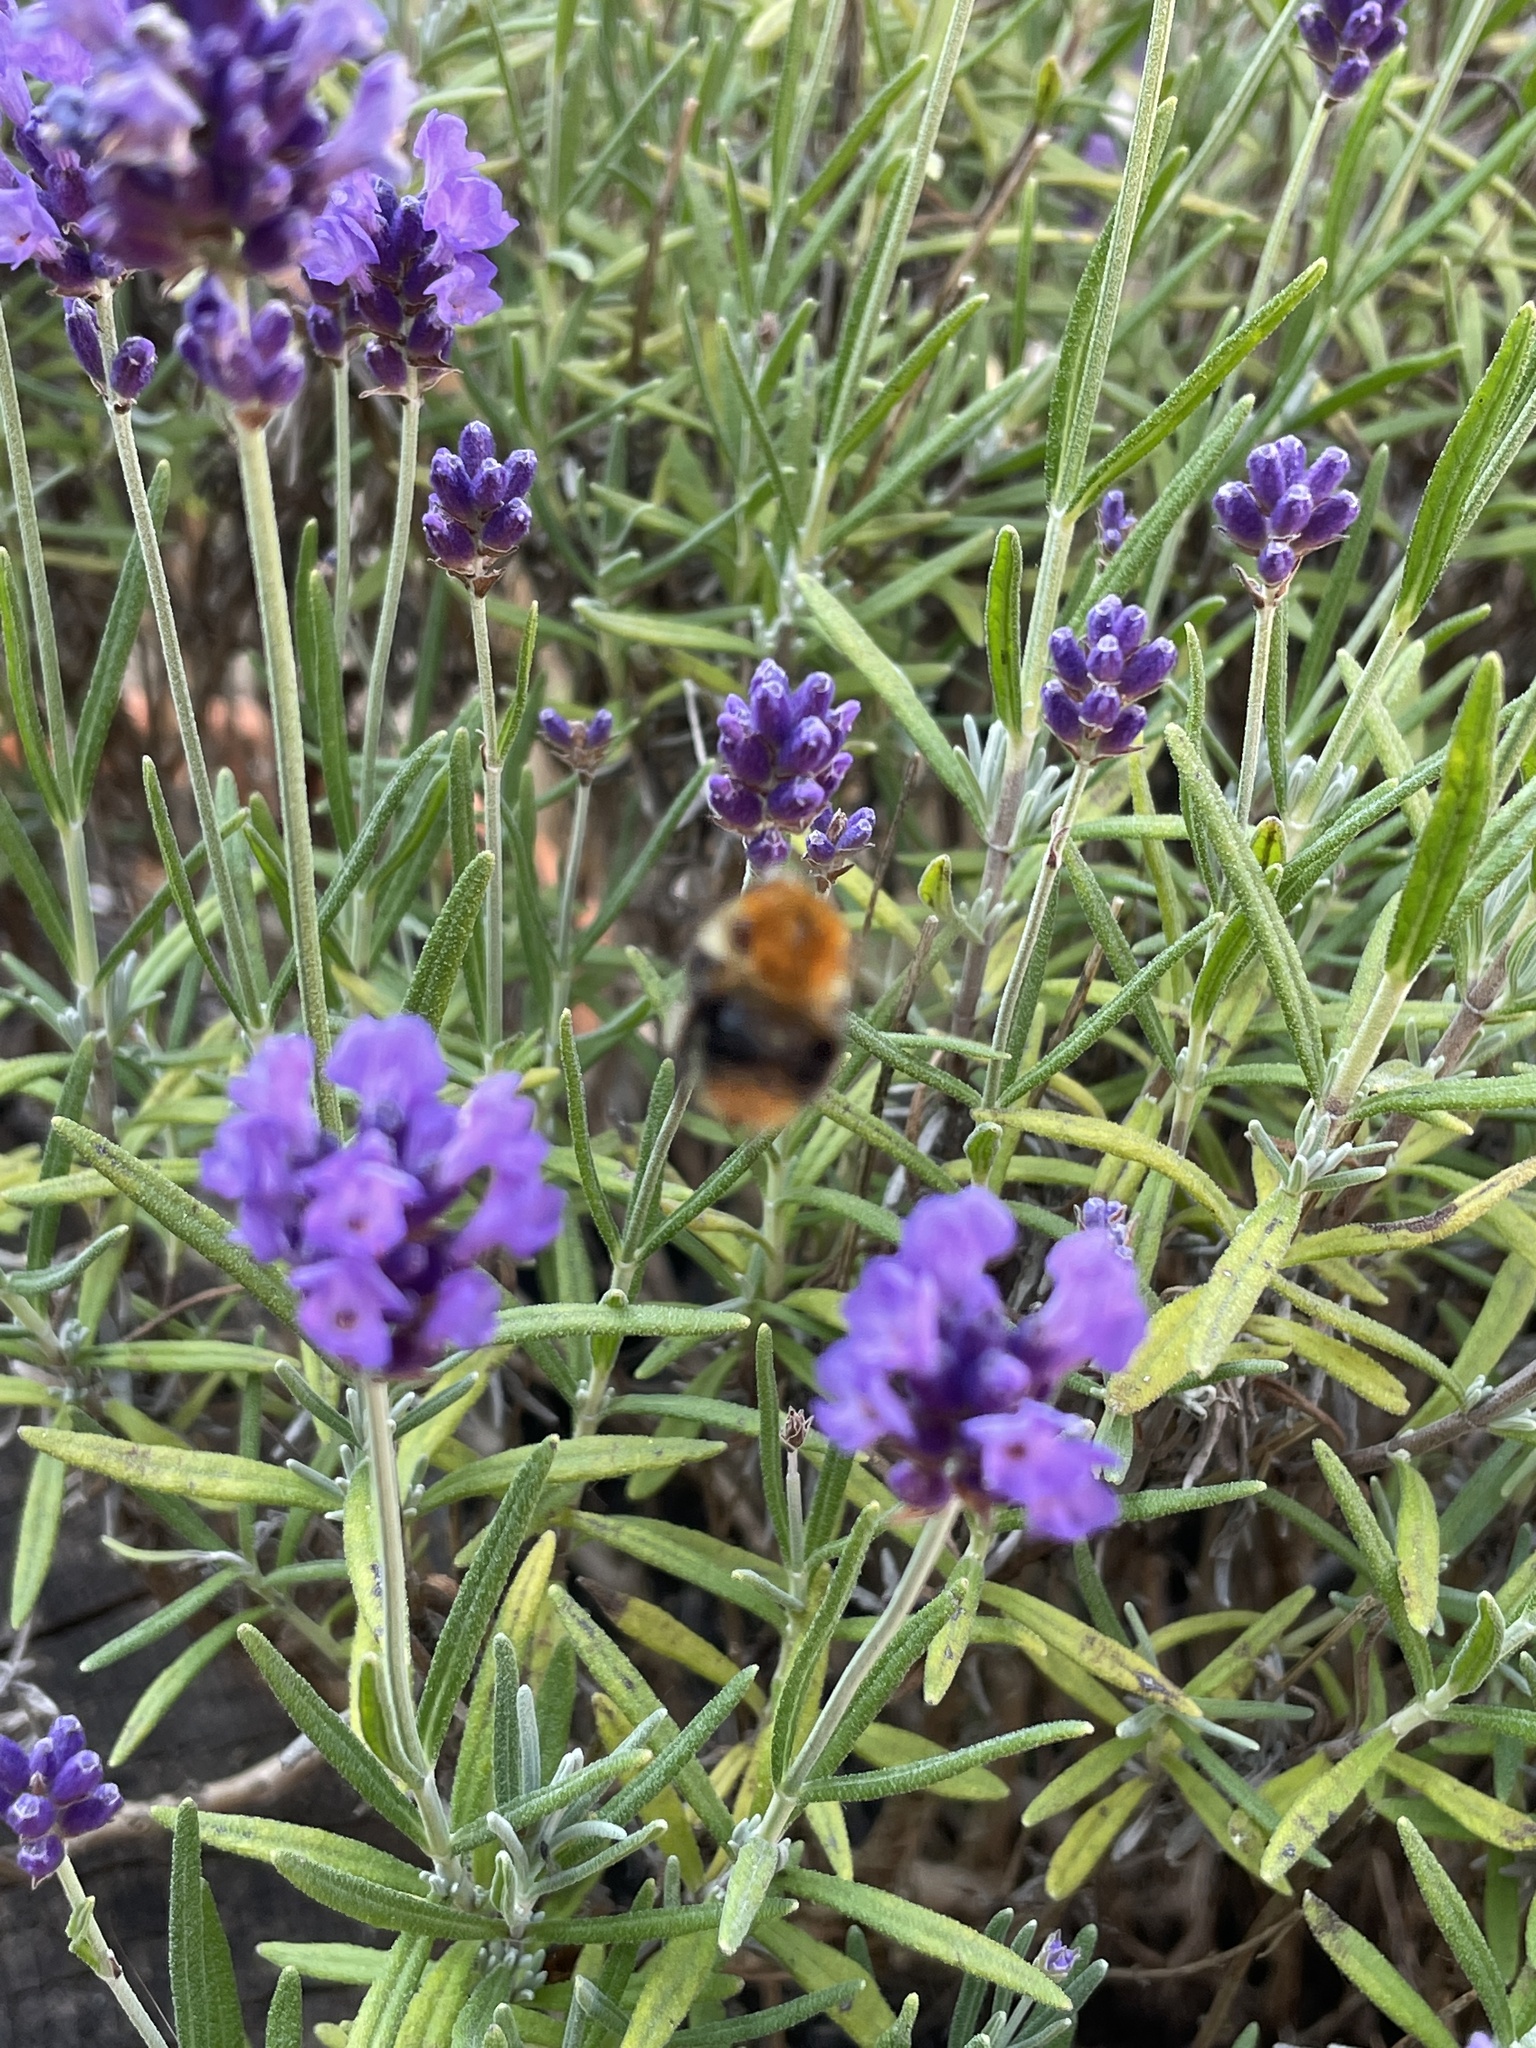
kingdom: Animalia
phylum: Arthropoda
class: Insecta
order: Hymenoptera
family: Apidae
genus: Bombus
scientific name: Bombus pascuorum
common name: Common carder bee
